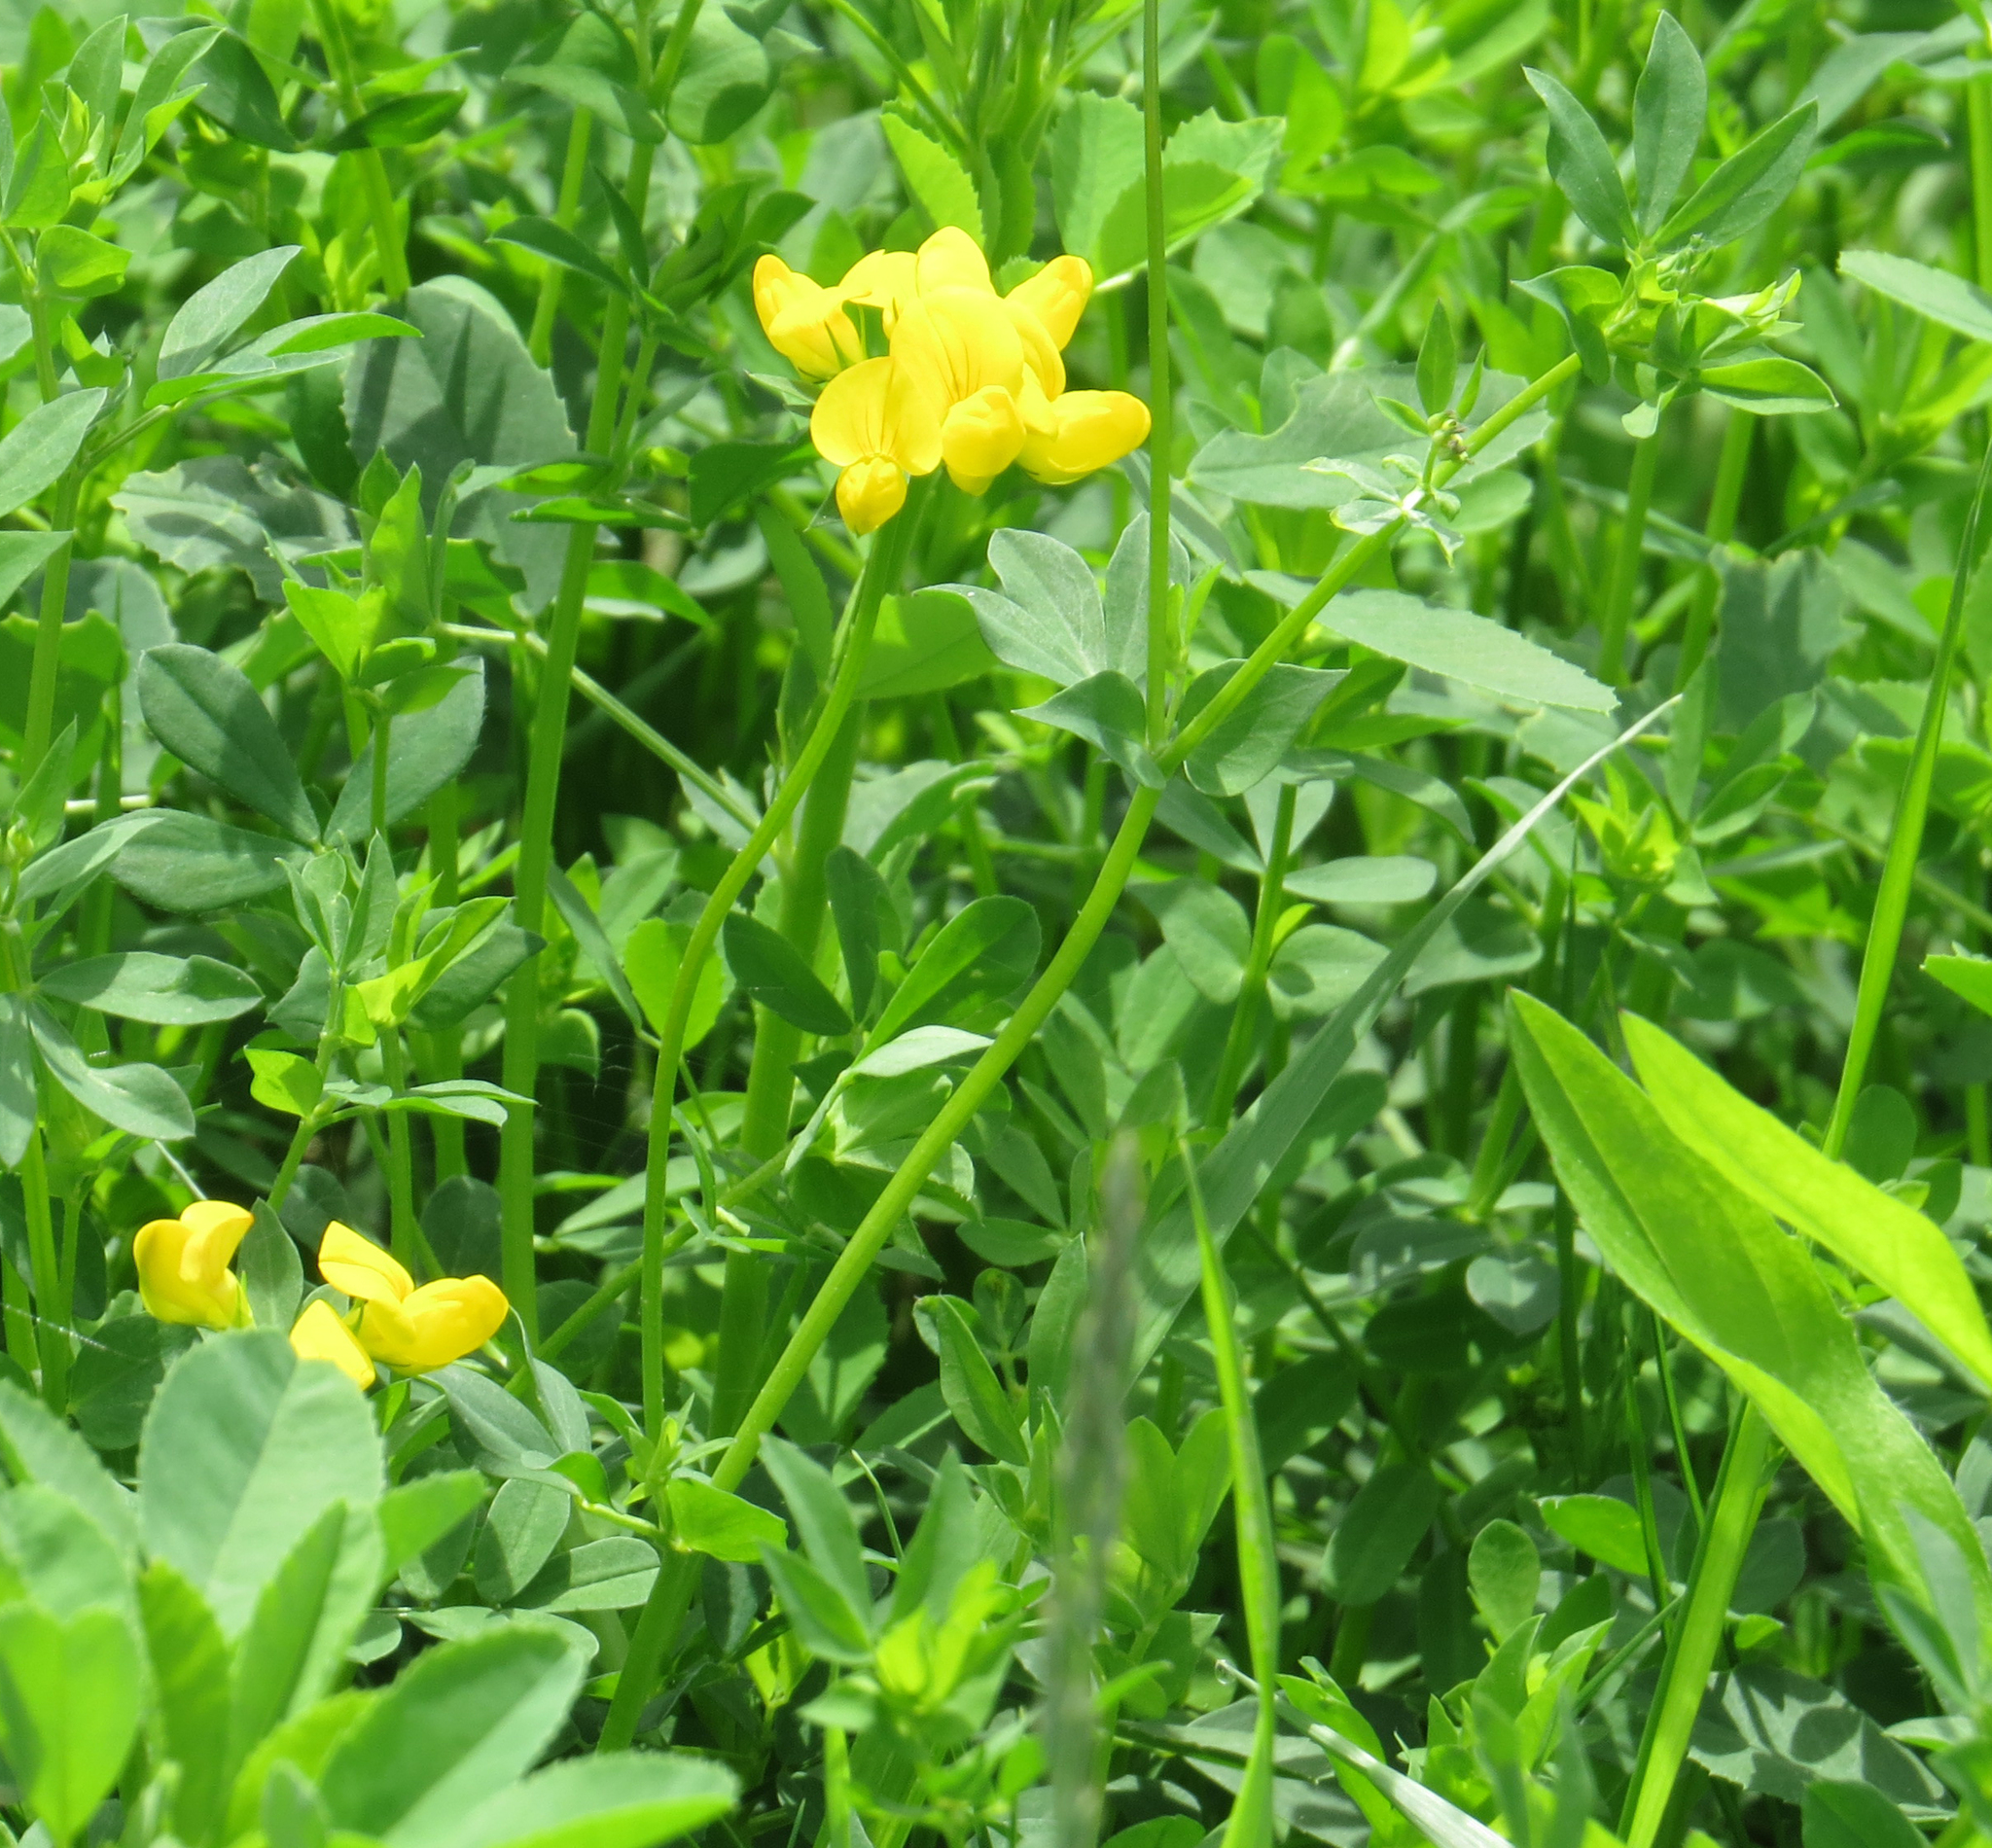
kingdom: Plantae
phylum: Tracheophyta
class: Magnoliopsida
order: Fabales
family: Fabaceae
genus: Lotus
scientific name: Lotus corniculatus
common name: Common bird's-foot-trefoil
